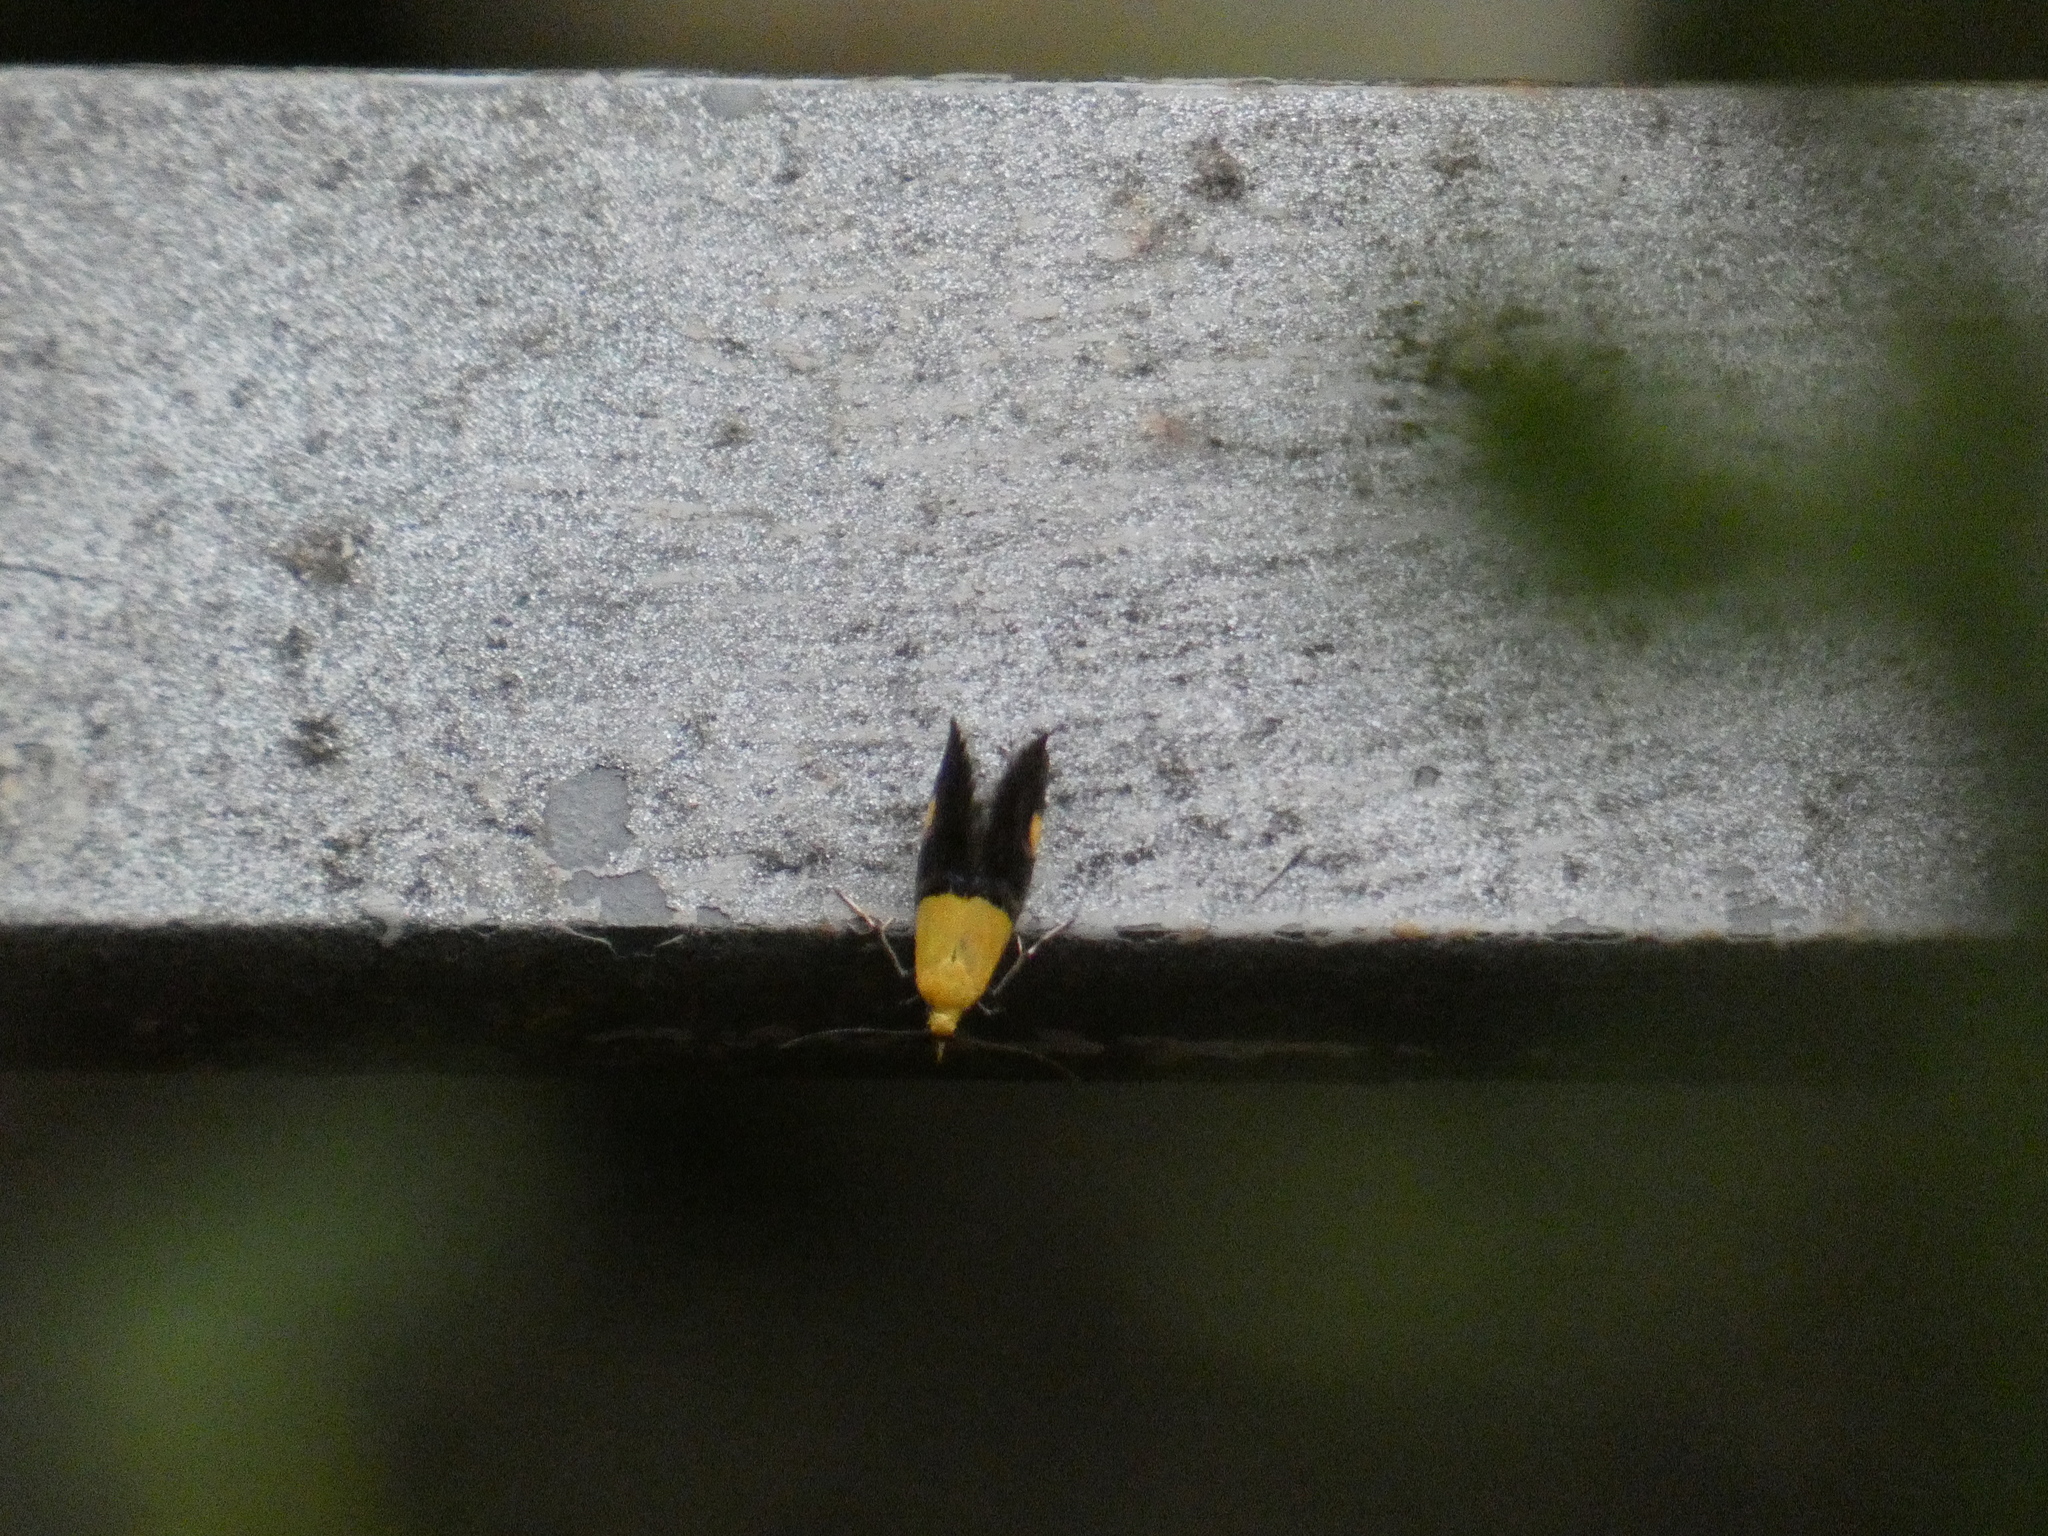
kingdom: Animalia
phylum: Arthropoda
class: Insecta
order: Lepidoptera
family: Oecophoridae
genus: Oecophora
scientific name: Oecophora bractella
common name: Gold-base tubic
